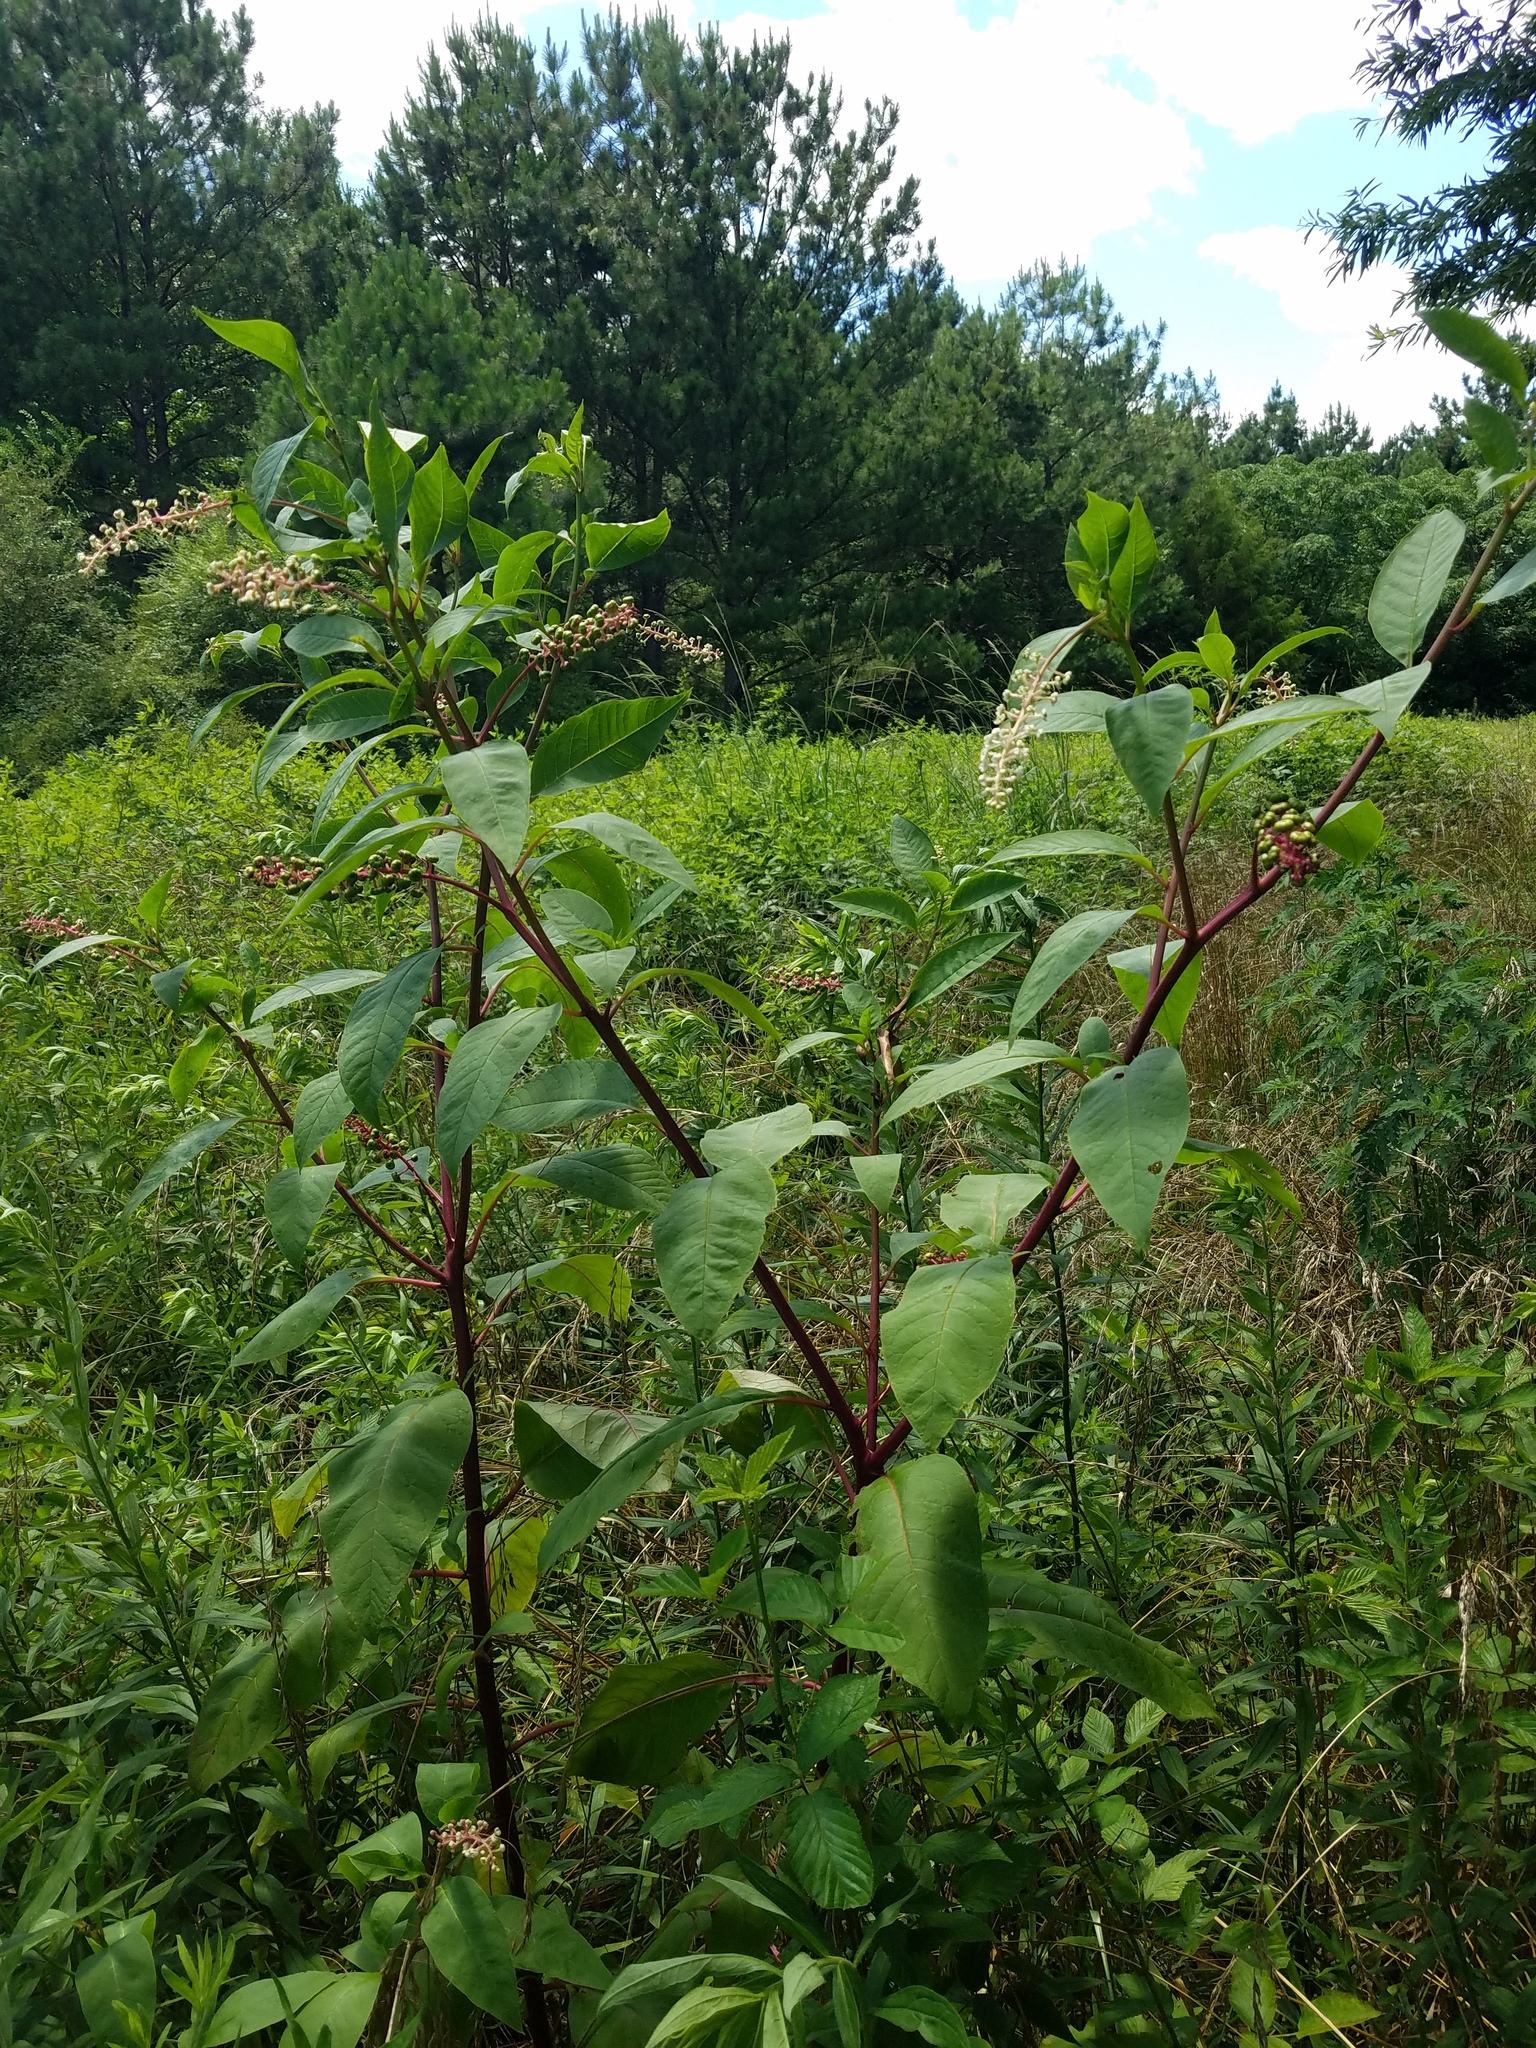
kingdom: Plantae
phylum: Tracheophyta
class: Magnoliopsida
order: Caryophyllales
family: Phytolaccaceae
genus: Phytolacca
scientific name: Phytolacca americana
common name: American pokeweed
